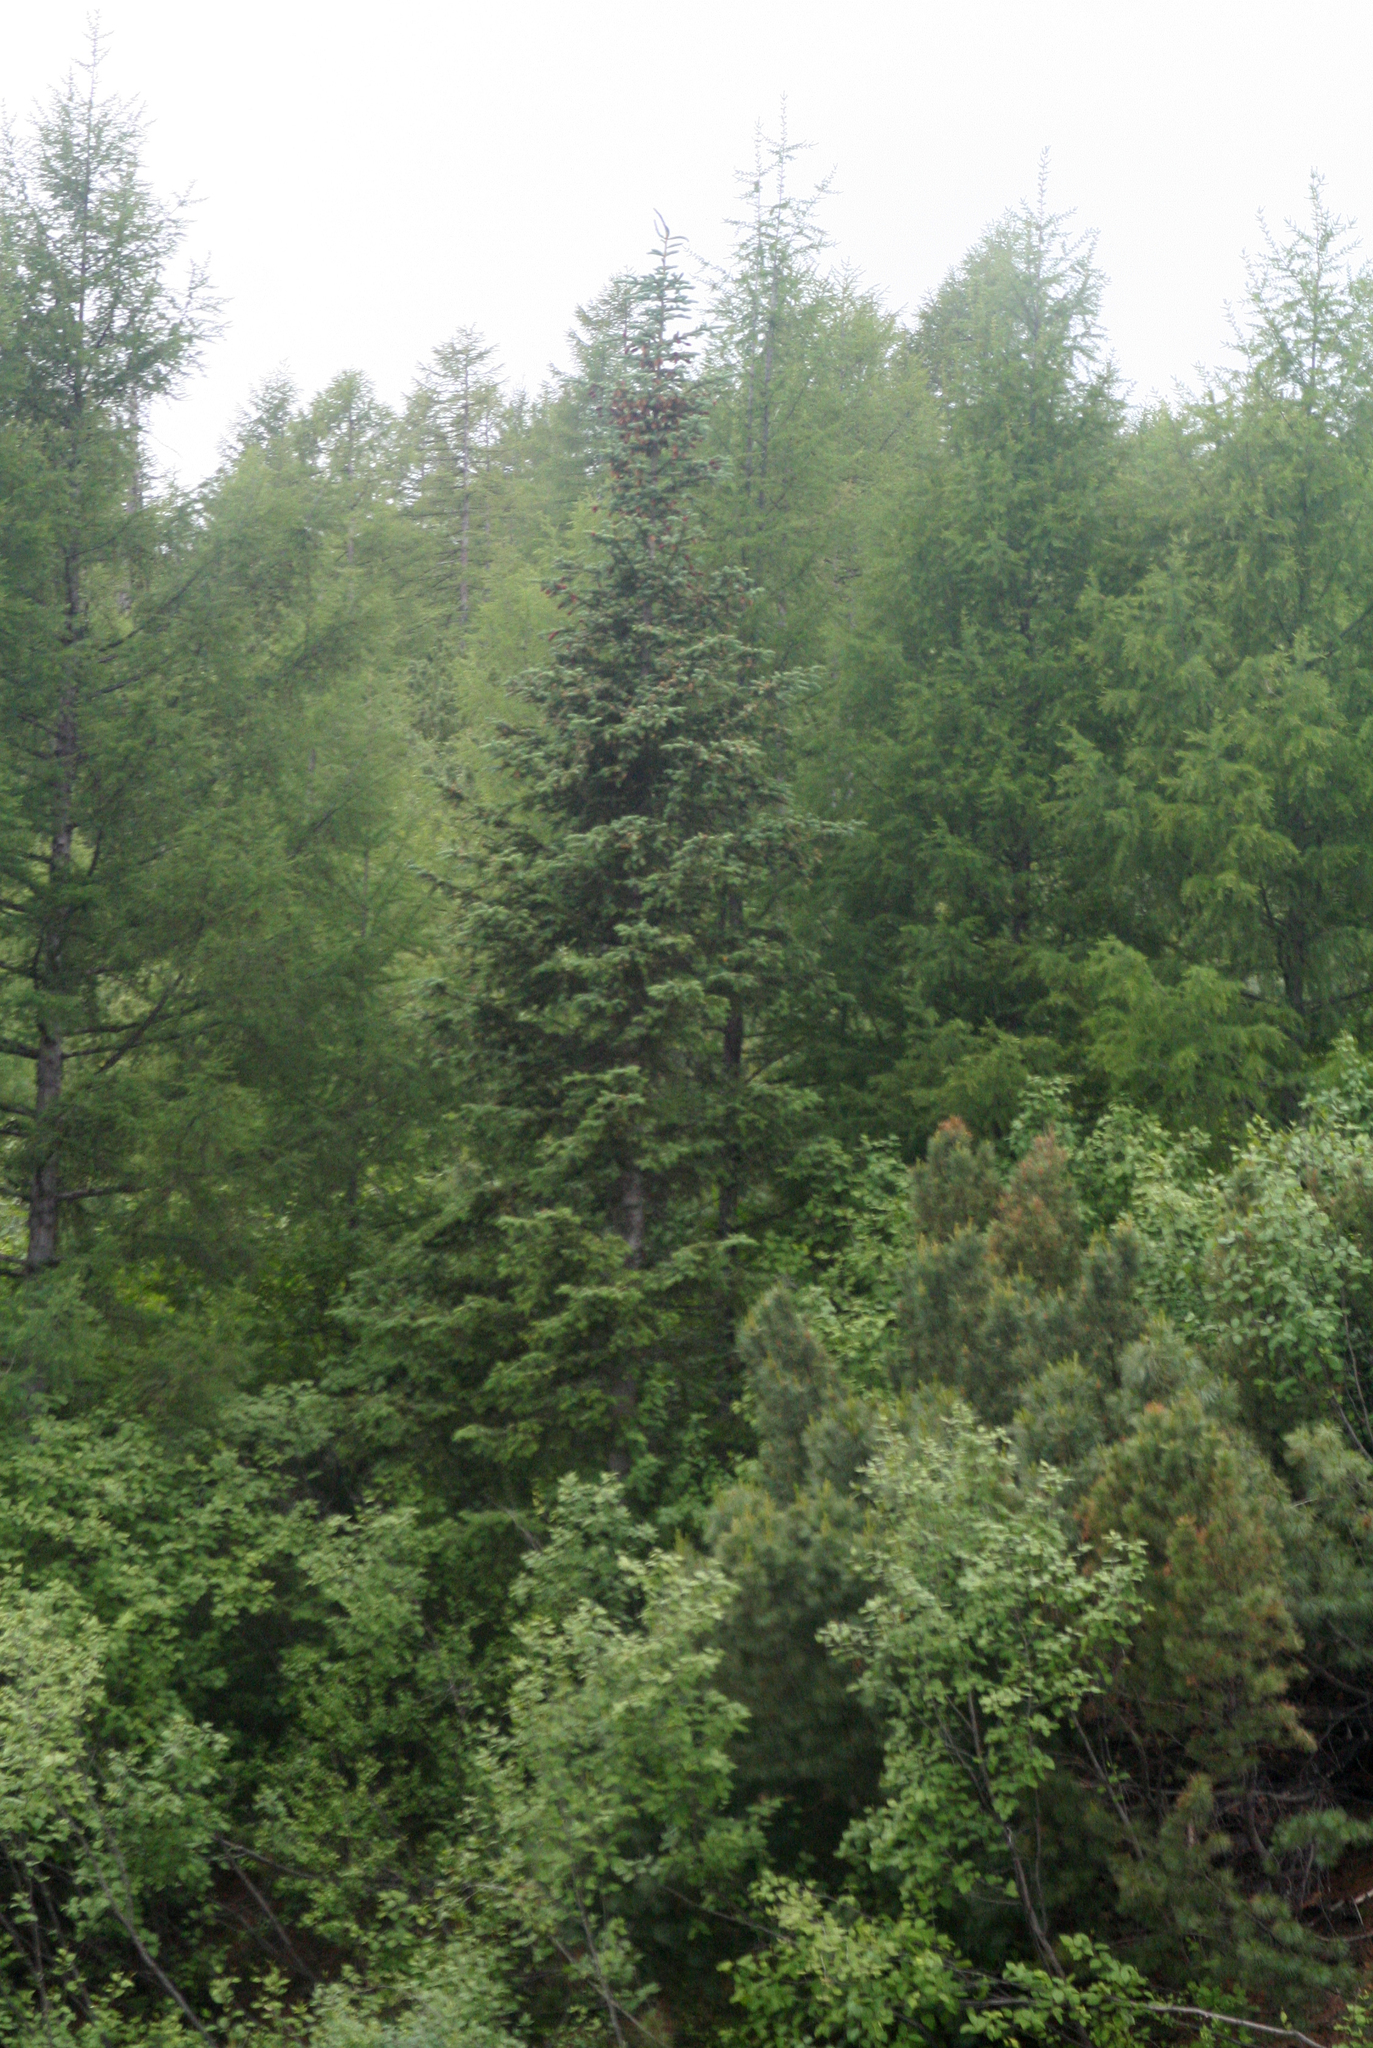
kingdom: Plantae
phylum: Tracheophyta
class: Pinopsida
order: Pinales
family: Pinaceae
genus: Picea
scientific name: Picea obovata
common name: Siberian spruce
